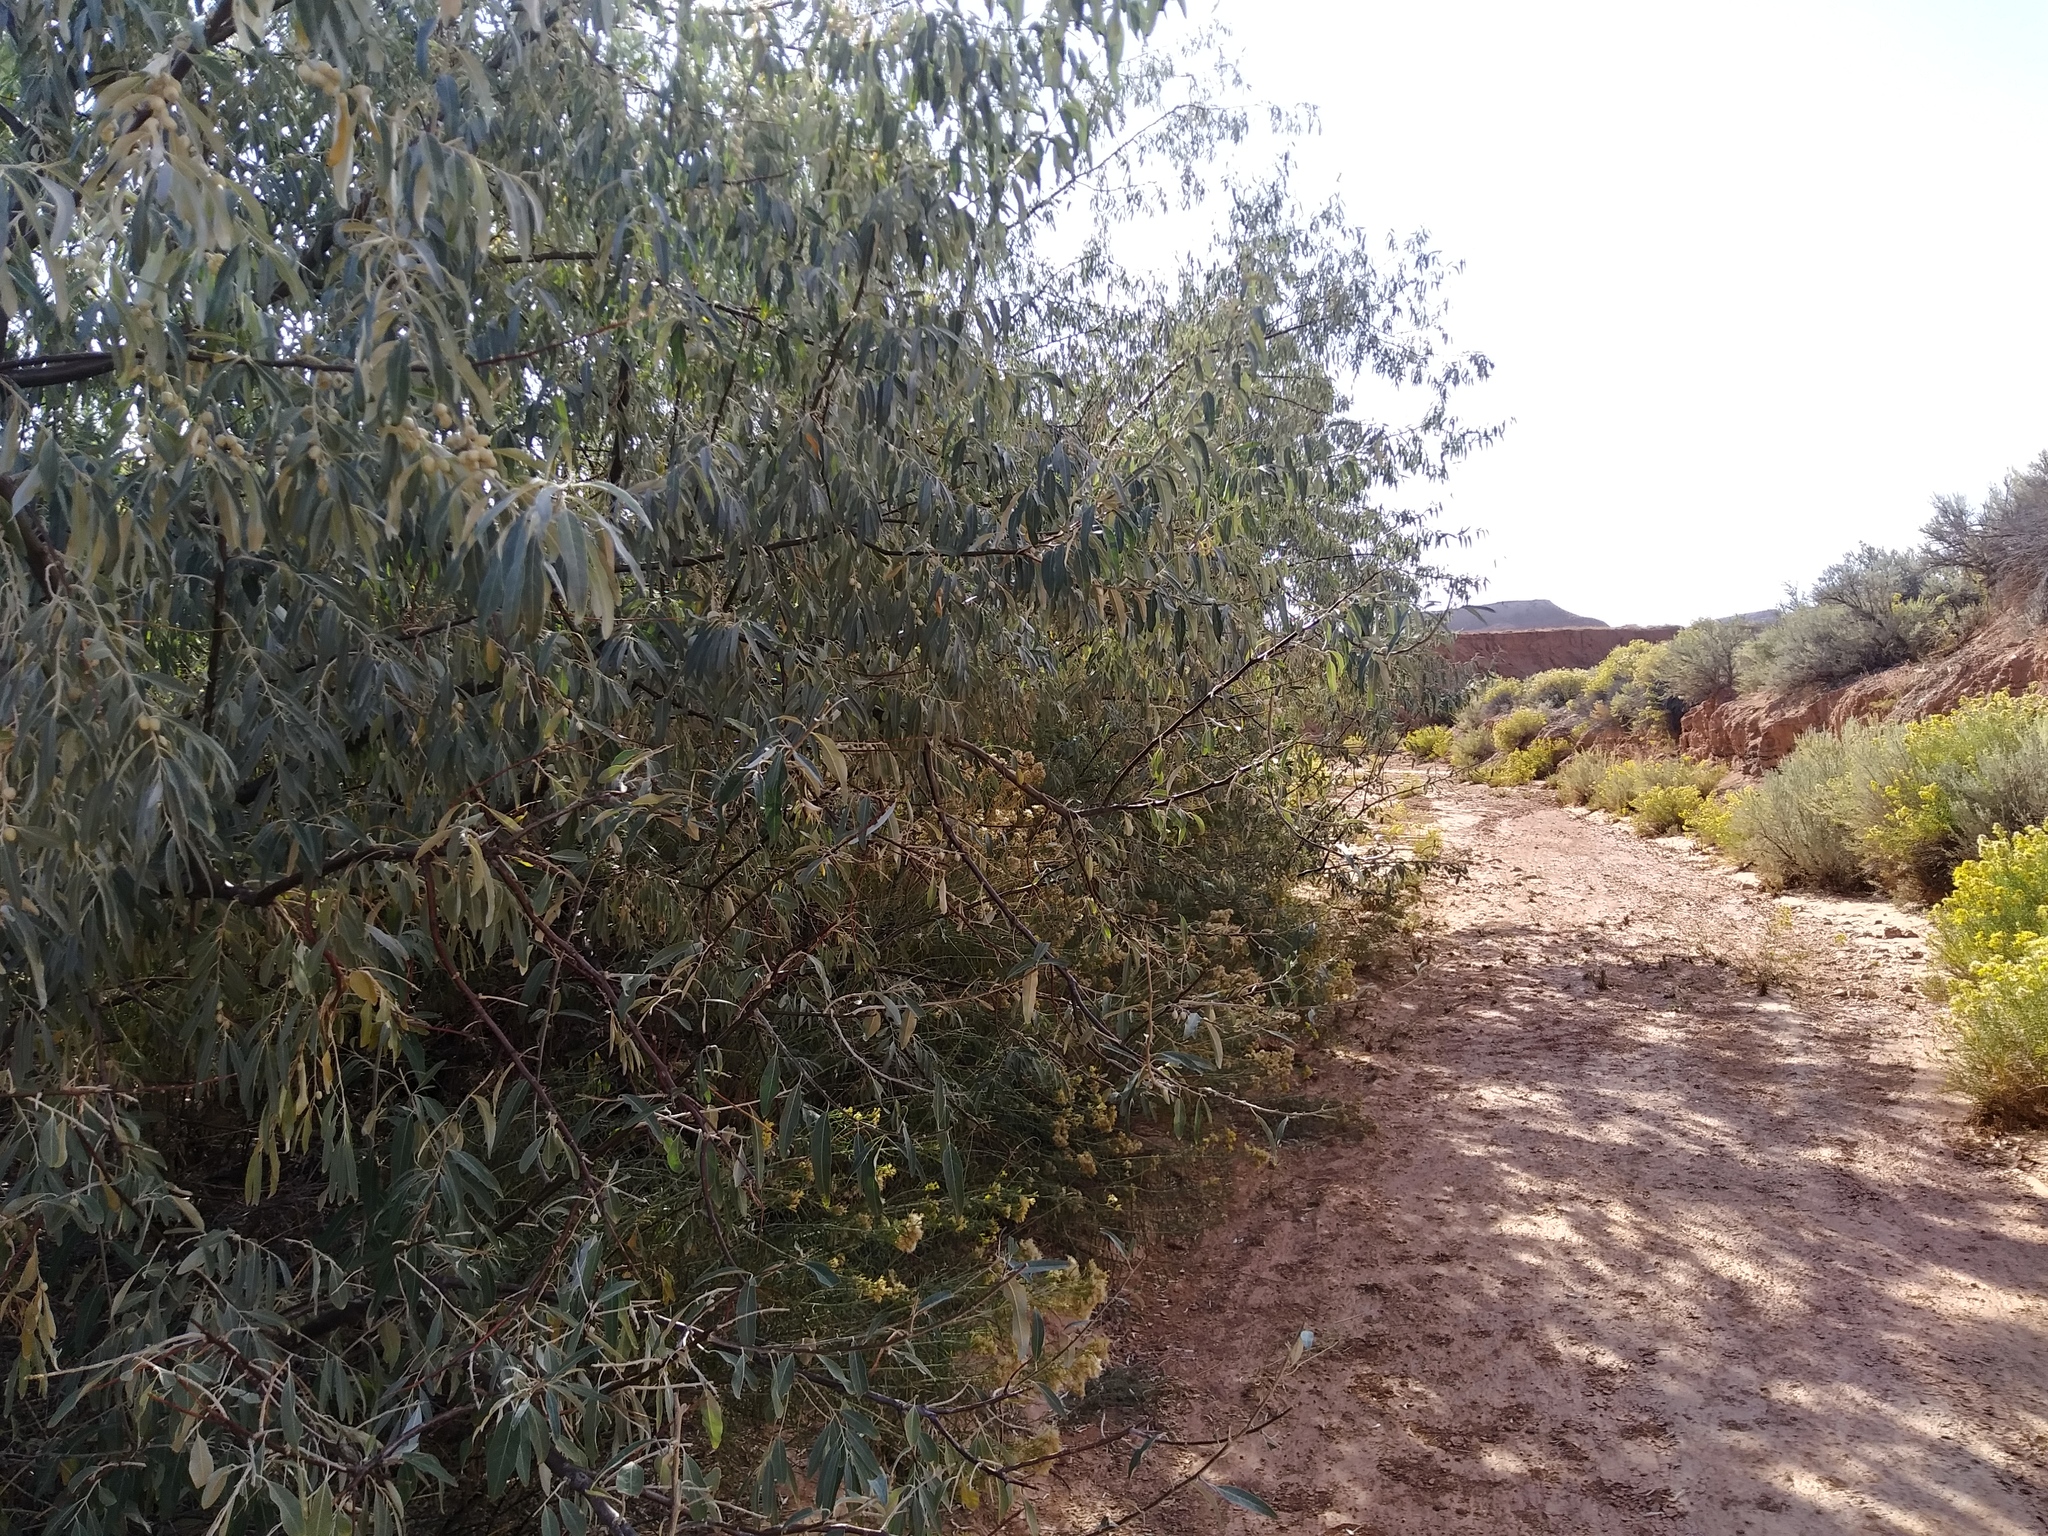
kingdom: Plantae
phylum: Tracheophyta
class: Magnoliopsida
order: Rosales
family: Elaeagnaceae
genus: Elaeagnus
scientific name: Elaeagnus angustifolia
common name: Russian olive
